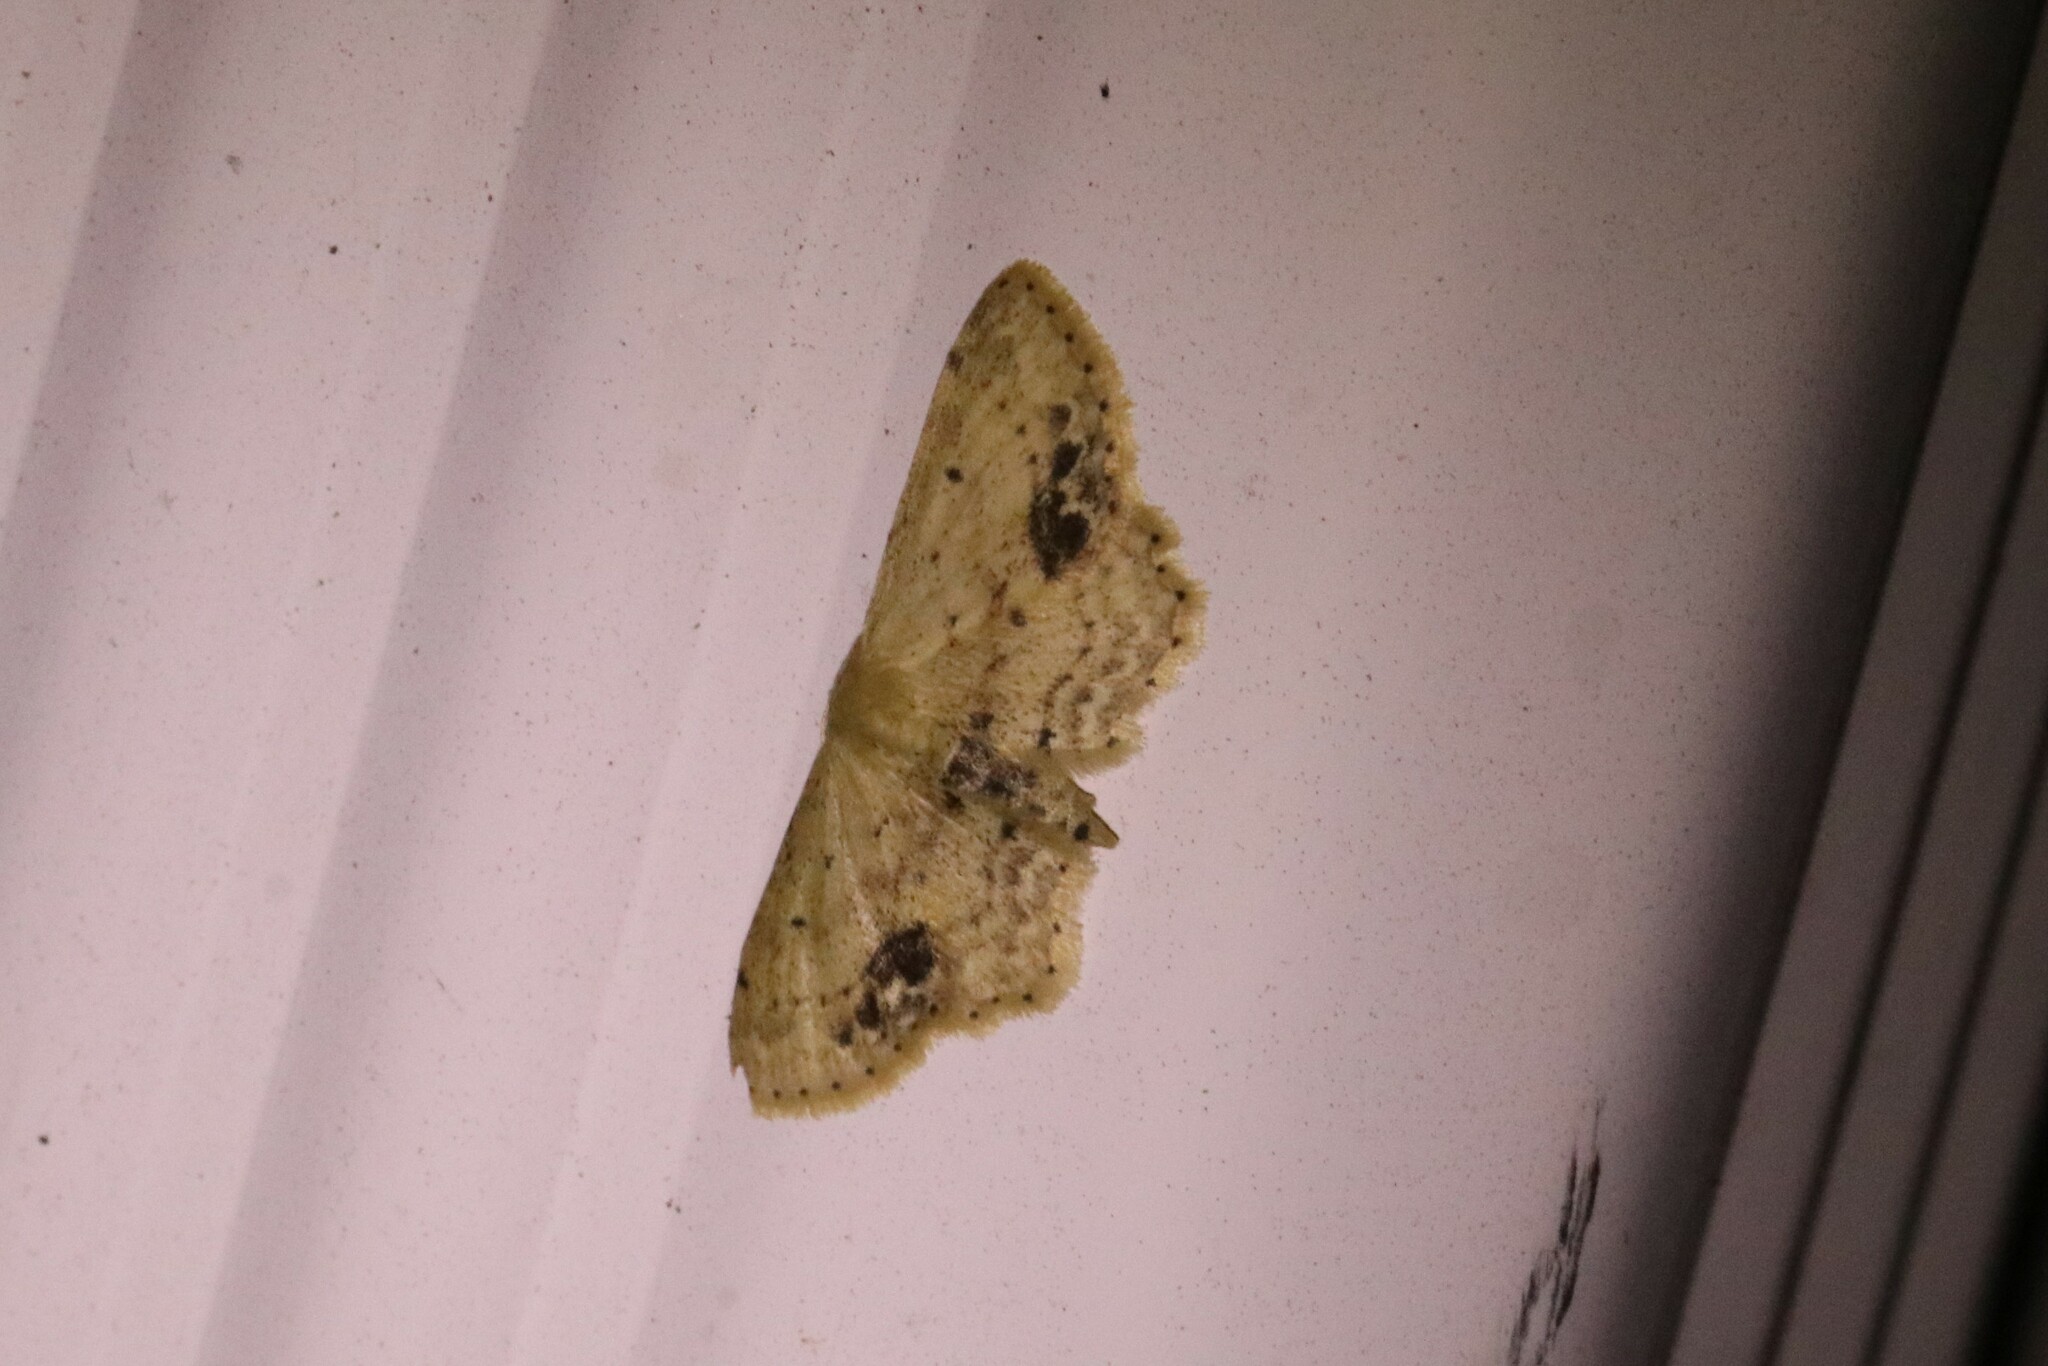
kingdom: Animalia
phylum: Arthropoda
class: Insecta
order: Lepidoptera
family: Geometridae
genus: Idaea
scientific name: Idaea dimidiata
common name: Single-dotted wave
